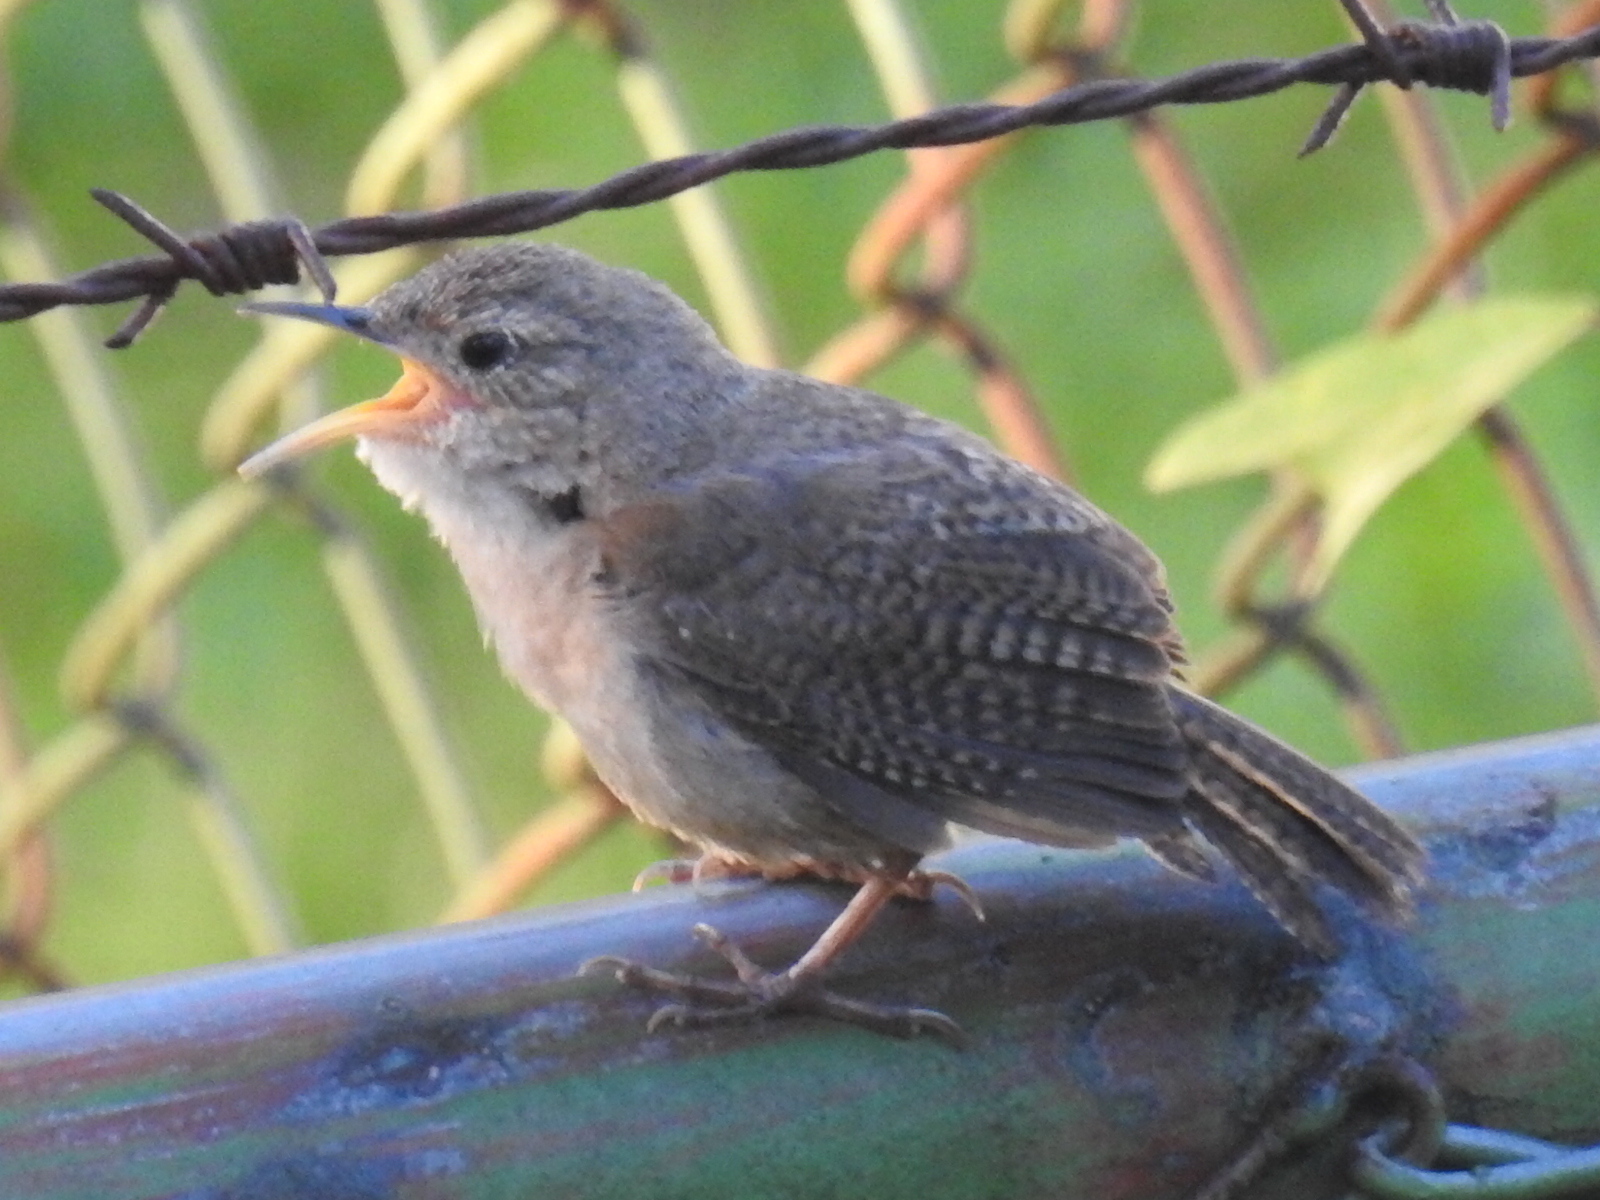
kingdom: Animalia
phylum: Chordata
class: Aves
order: Passeriformes
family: Troglodytidae
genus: Troglodytes
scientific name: Troglodytes aedon
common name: House wren
